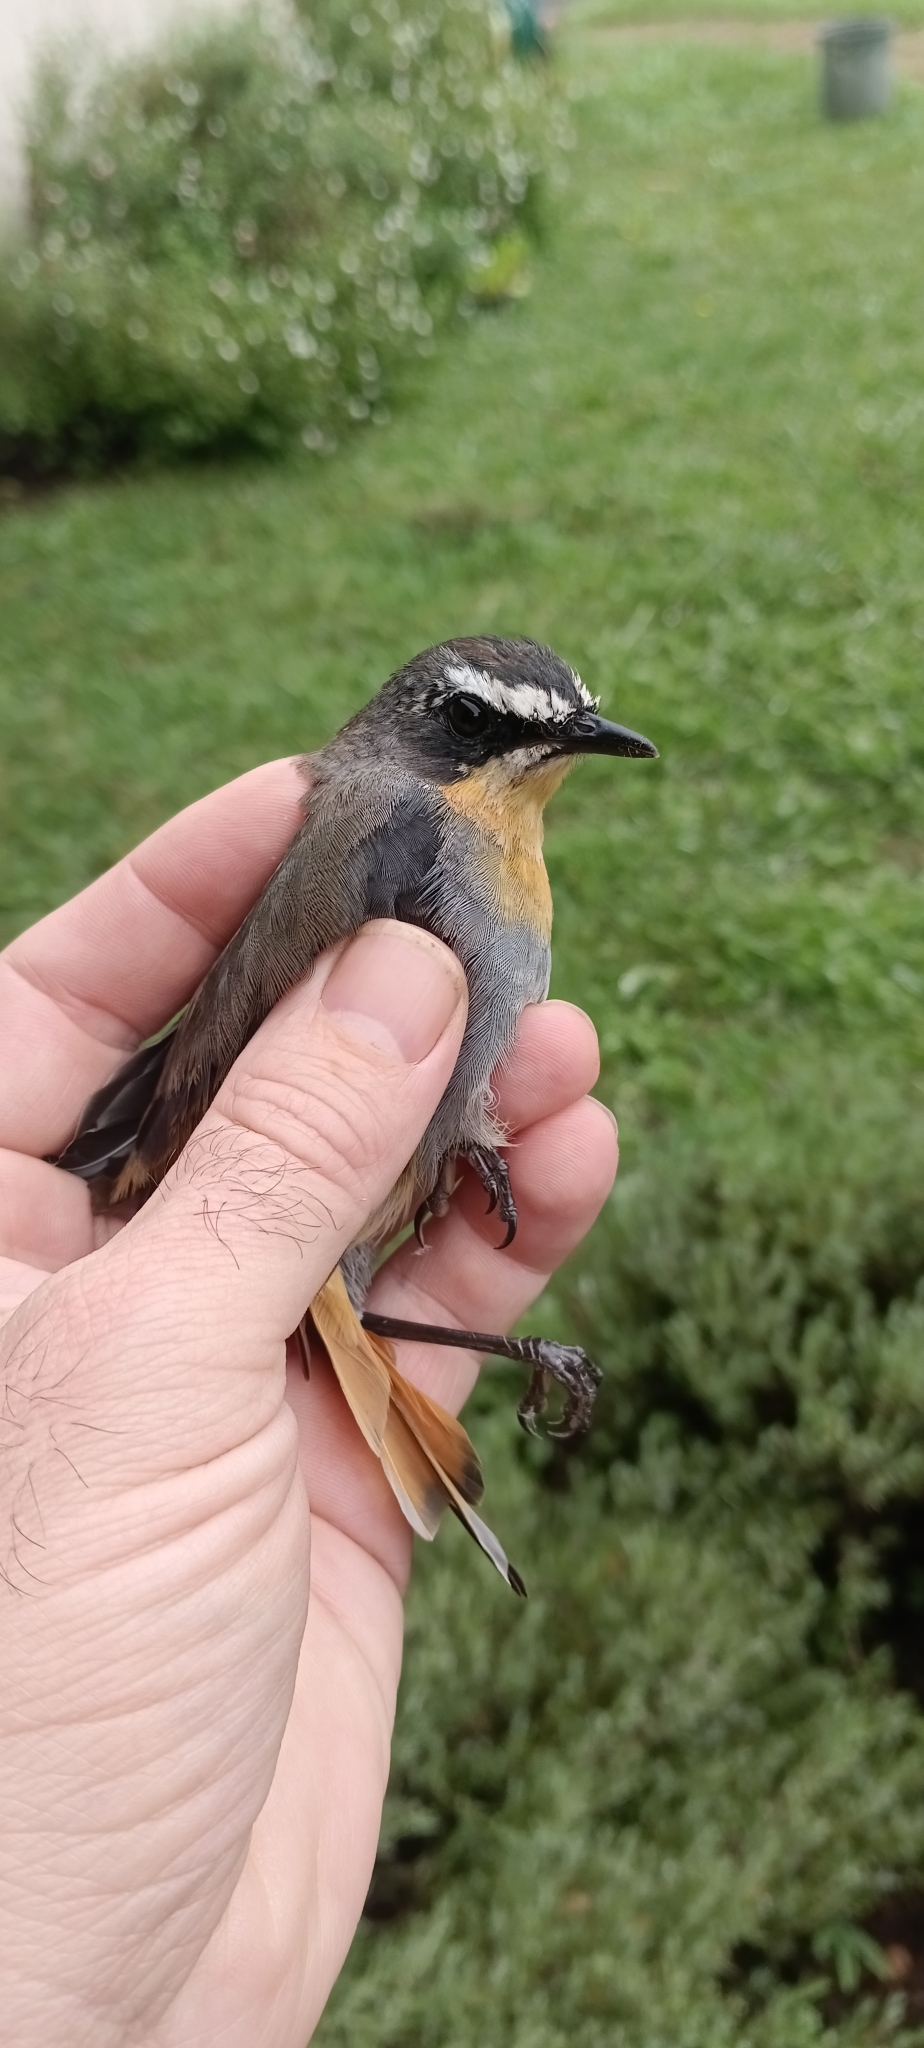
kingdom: Animalia
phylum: Chordata
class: Aves
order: Passeriformes
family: Muscicapidae
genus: Cossypha
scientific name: Cossypha caffra
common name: Cape robin-chat
